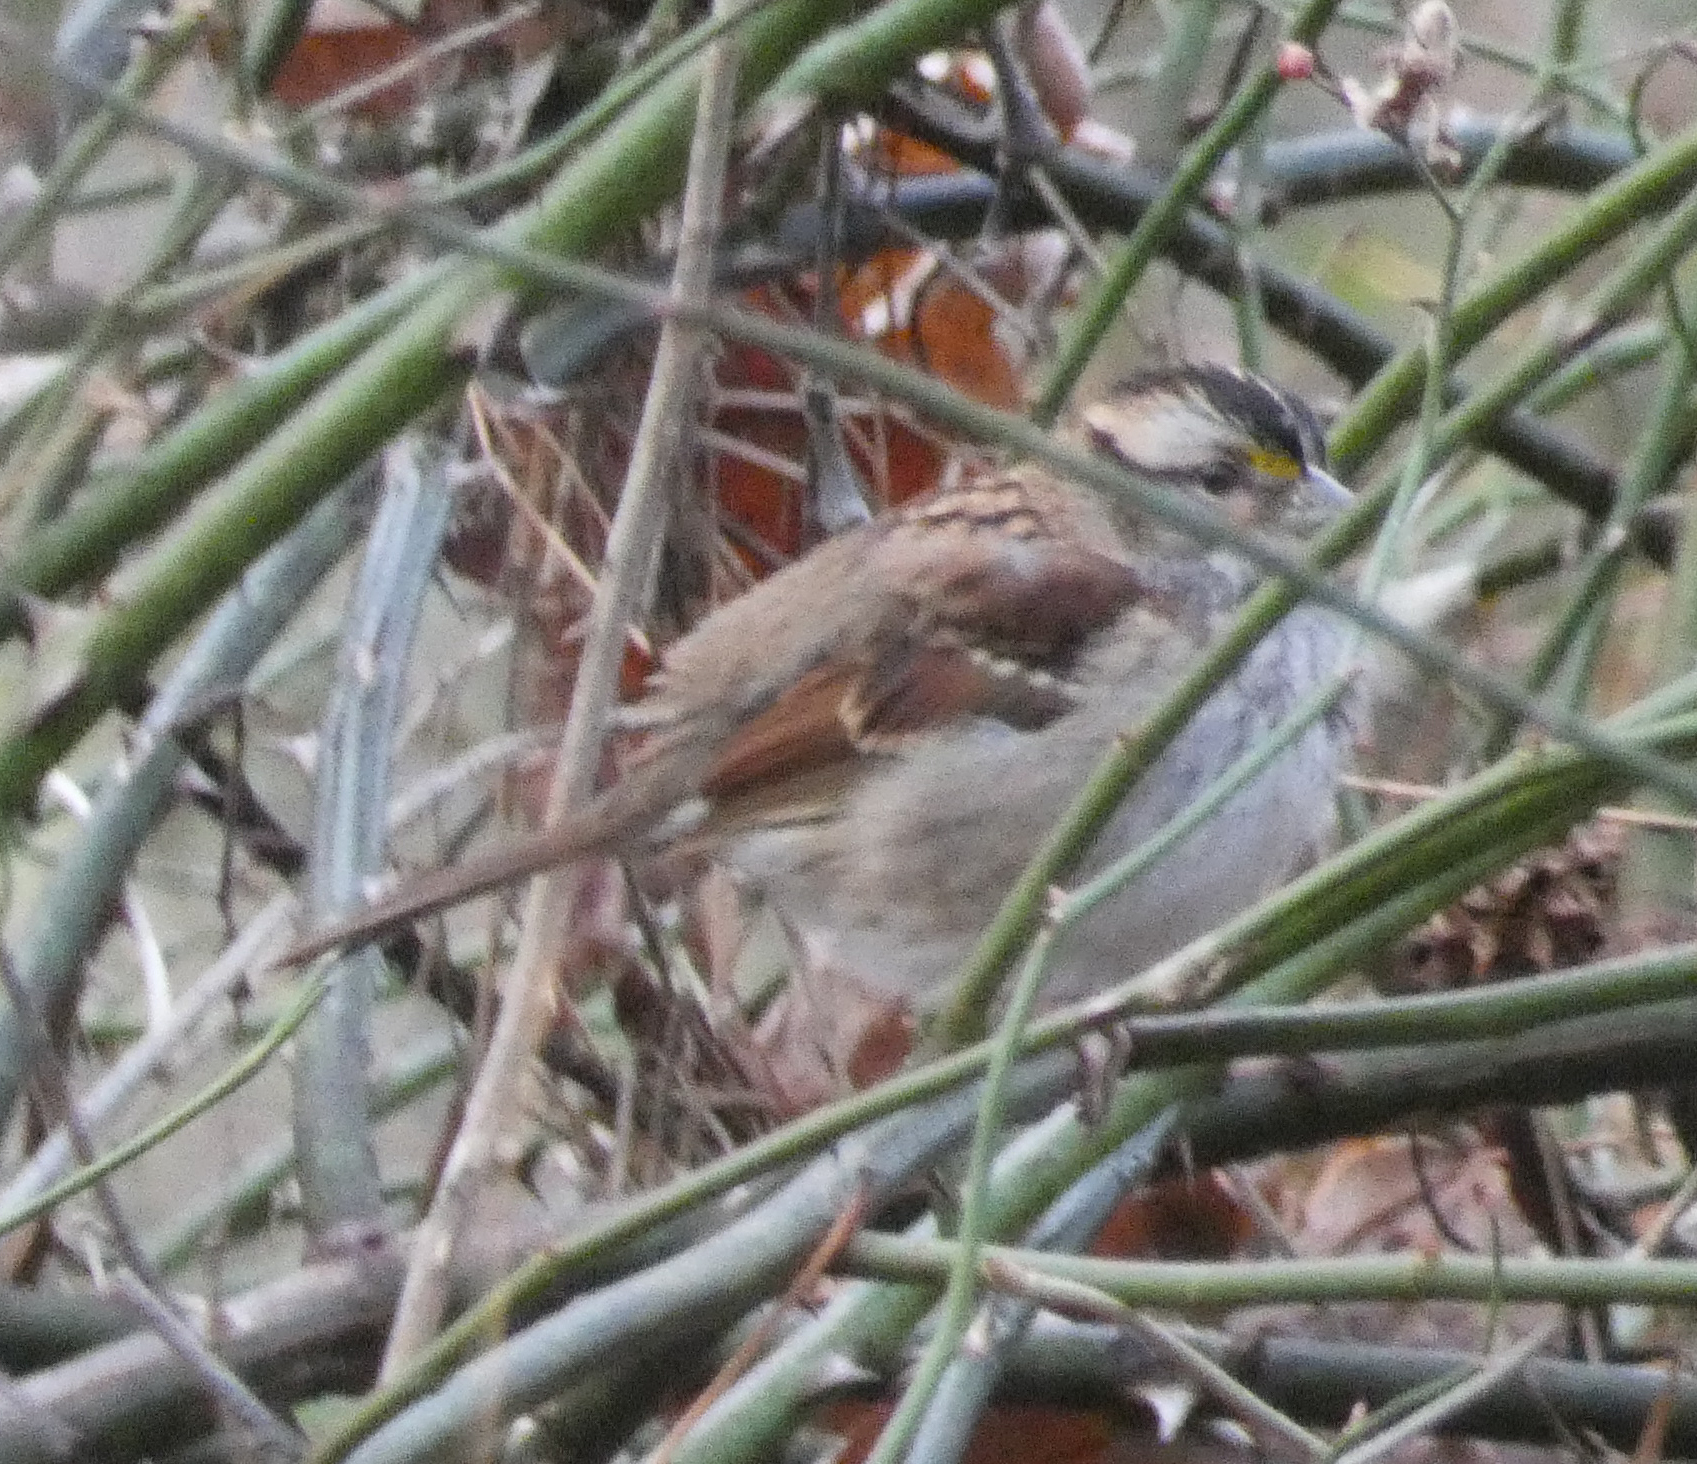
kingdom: Animalia
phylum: Chordata
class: Aves
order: Passeriformes
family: Passerellidae
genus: Zonotrichia
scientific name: Zonotrichia albicollis
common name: White-throated sparrow
